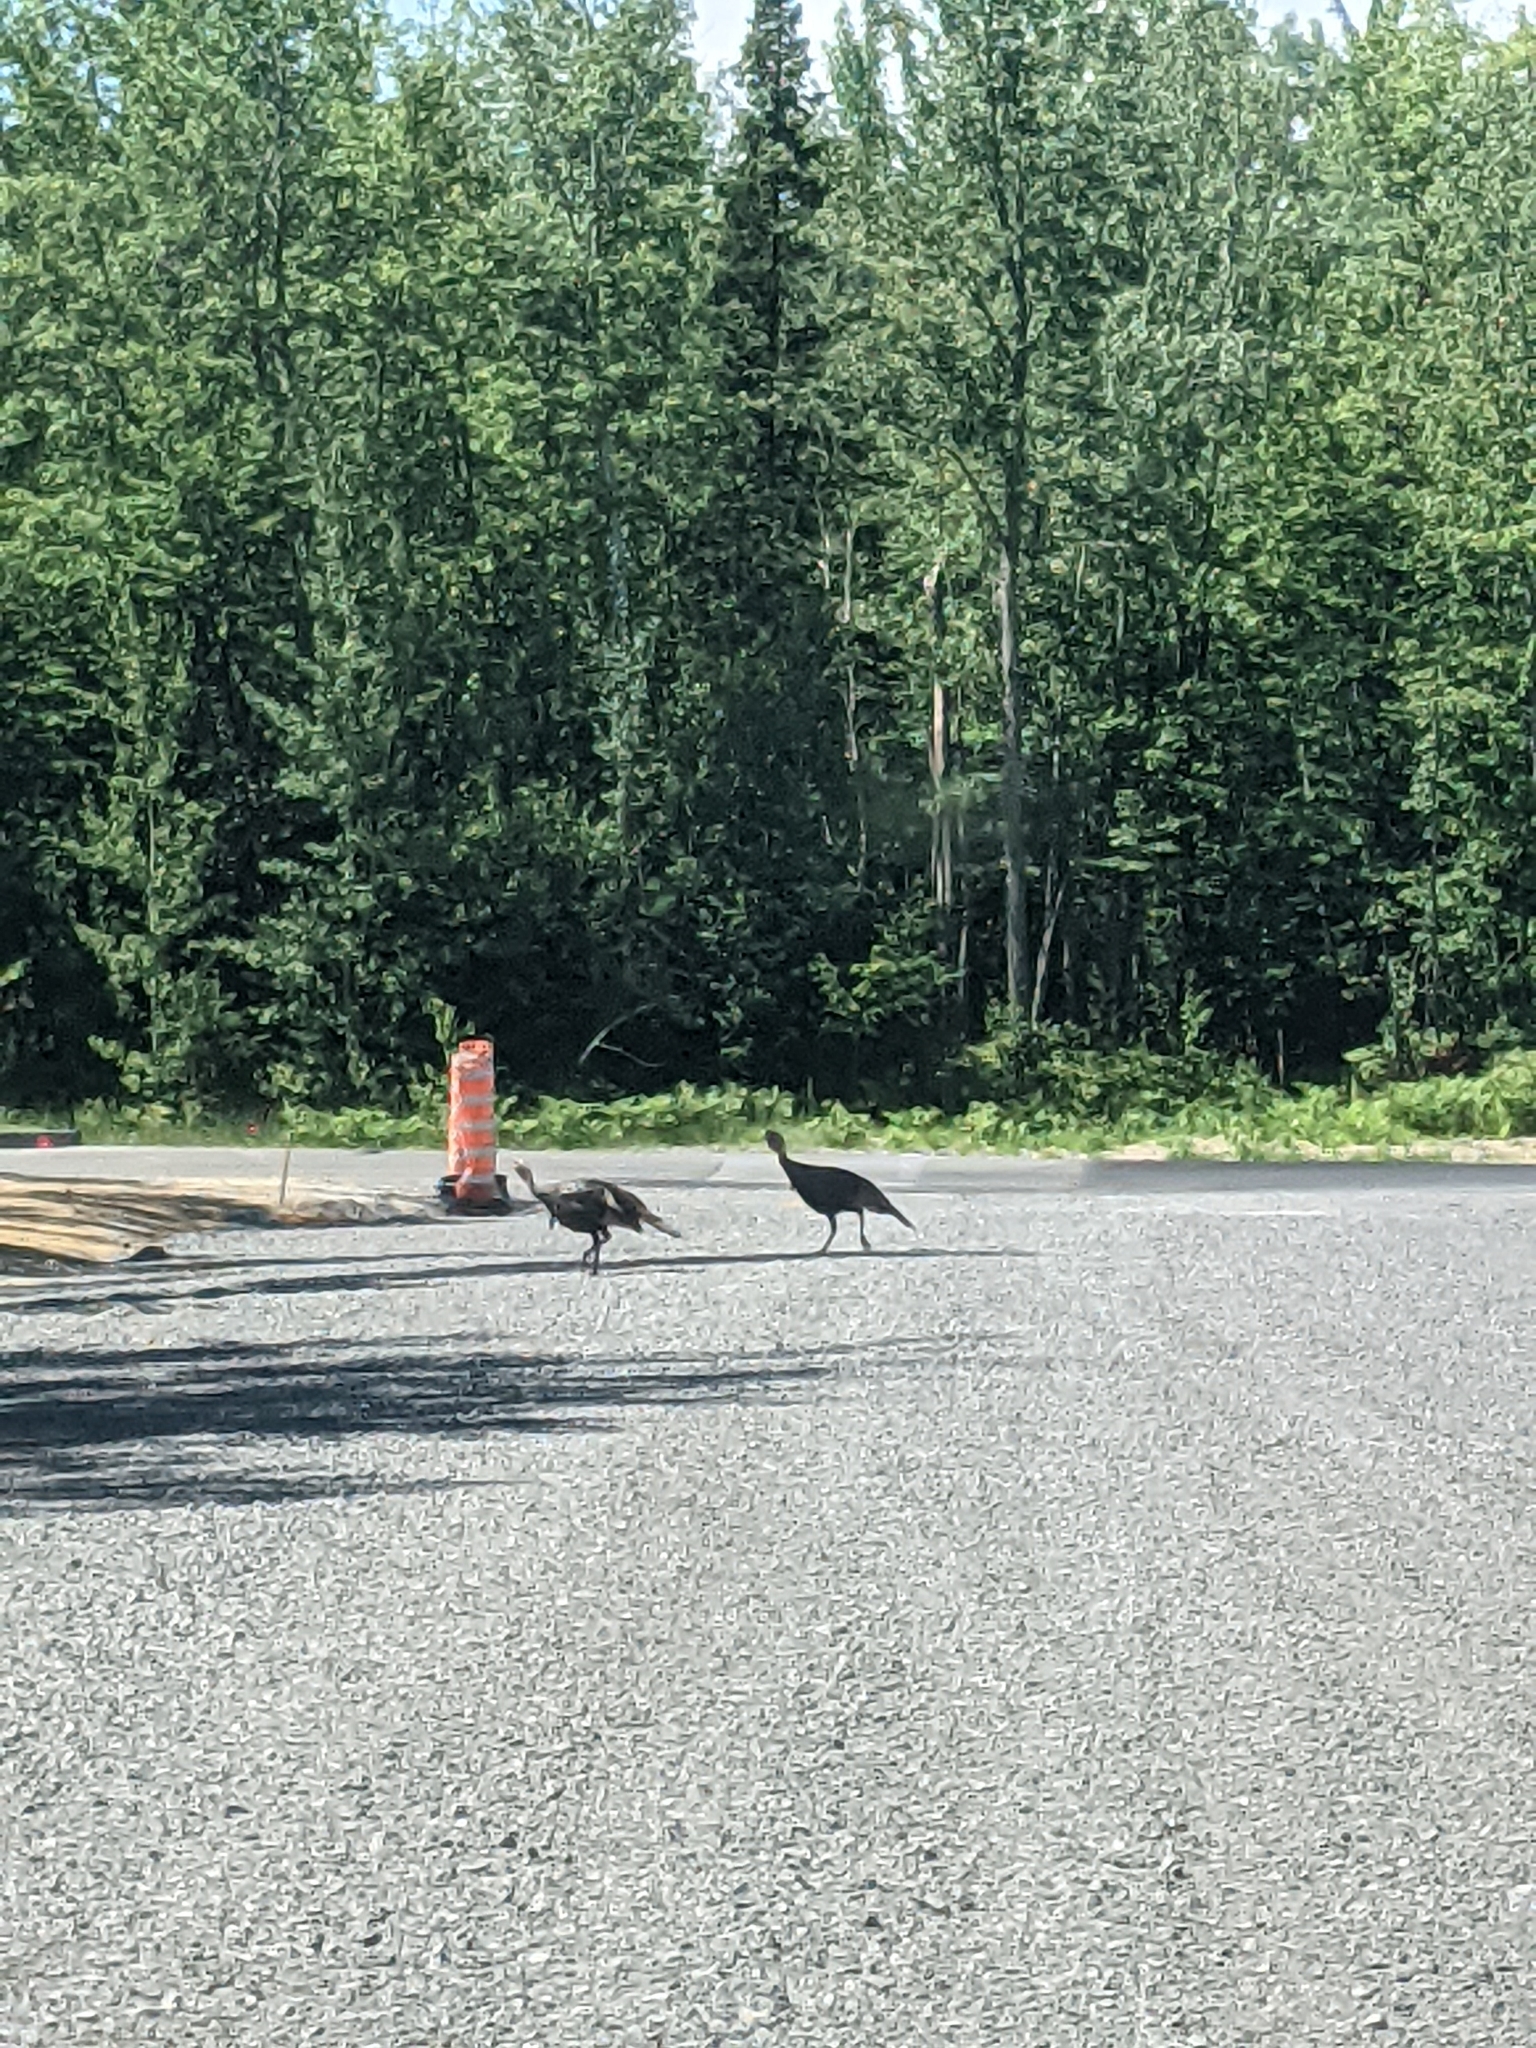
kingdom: Animalia
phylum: Chordata
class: Aves
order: Galliformes
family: Phasianidae
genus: Meleagris
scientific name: Meleagris gallopavo
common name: Wild turkey
